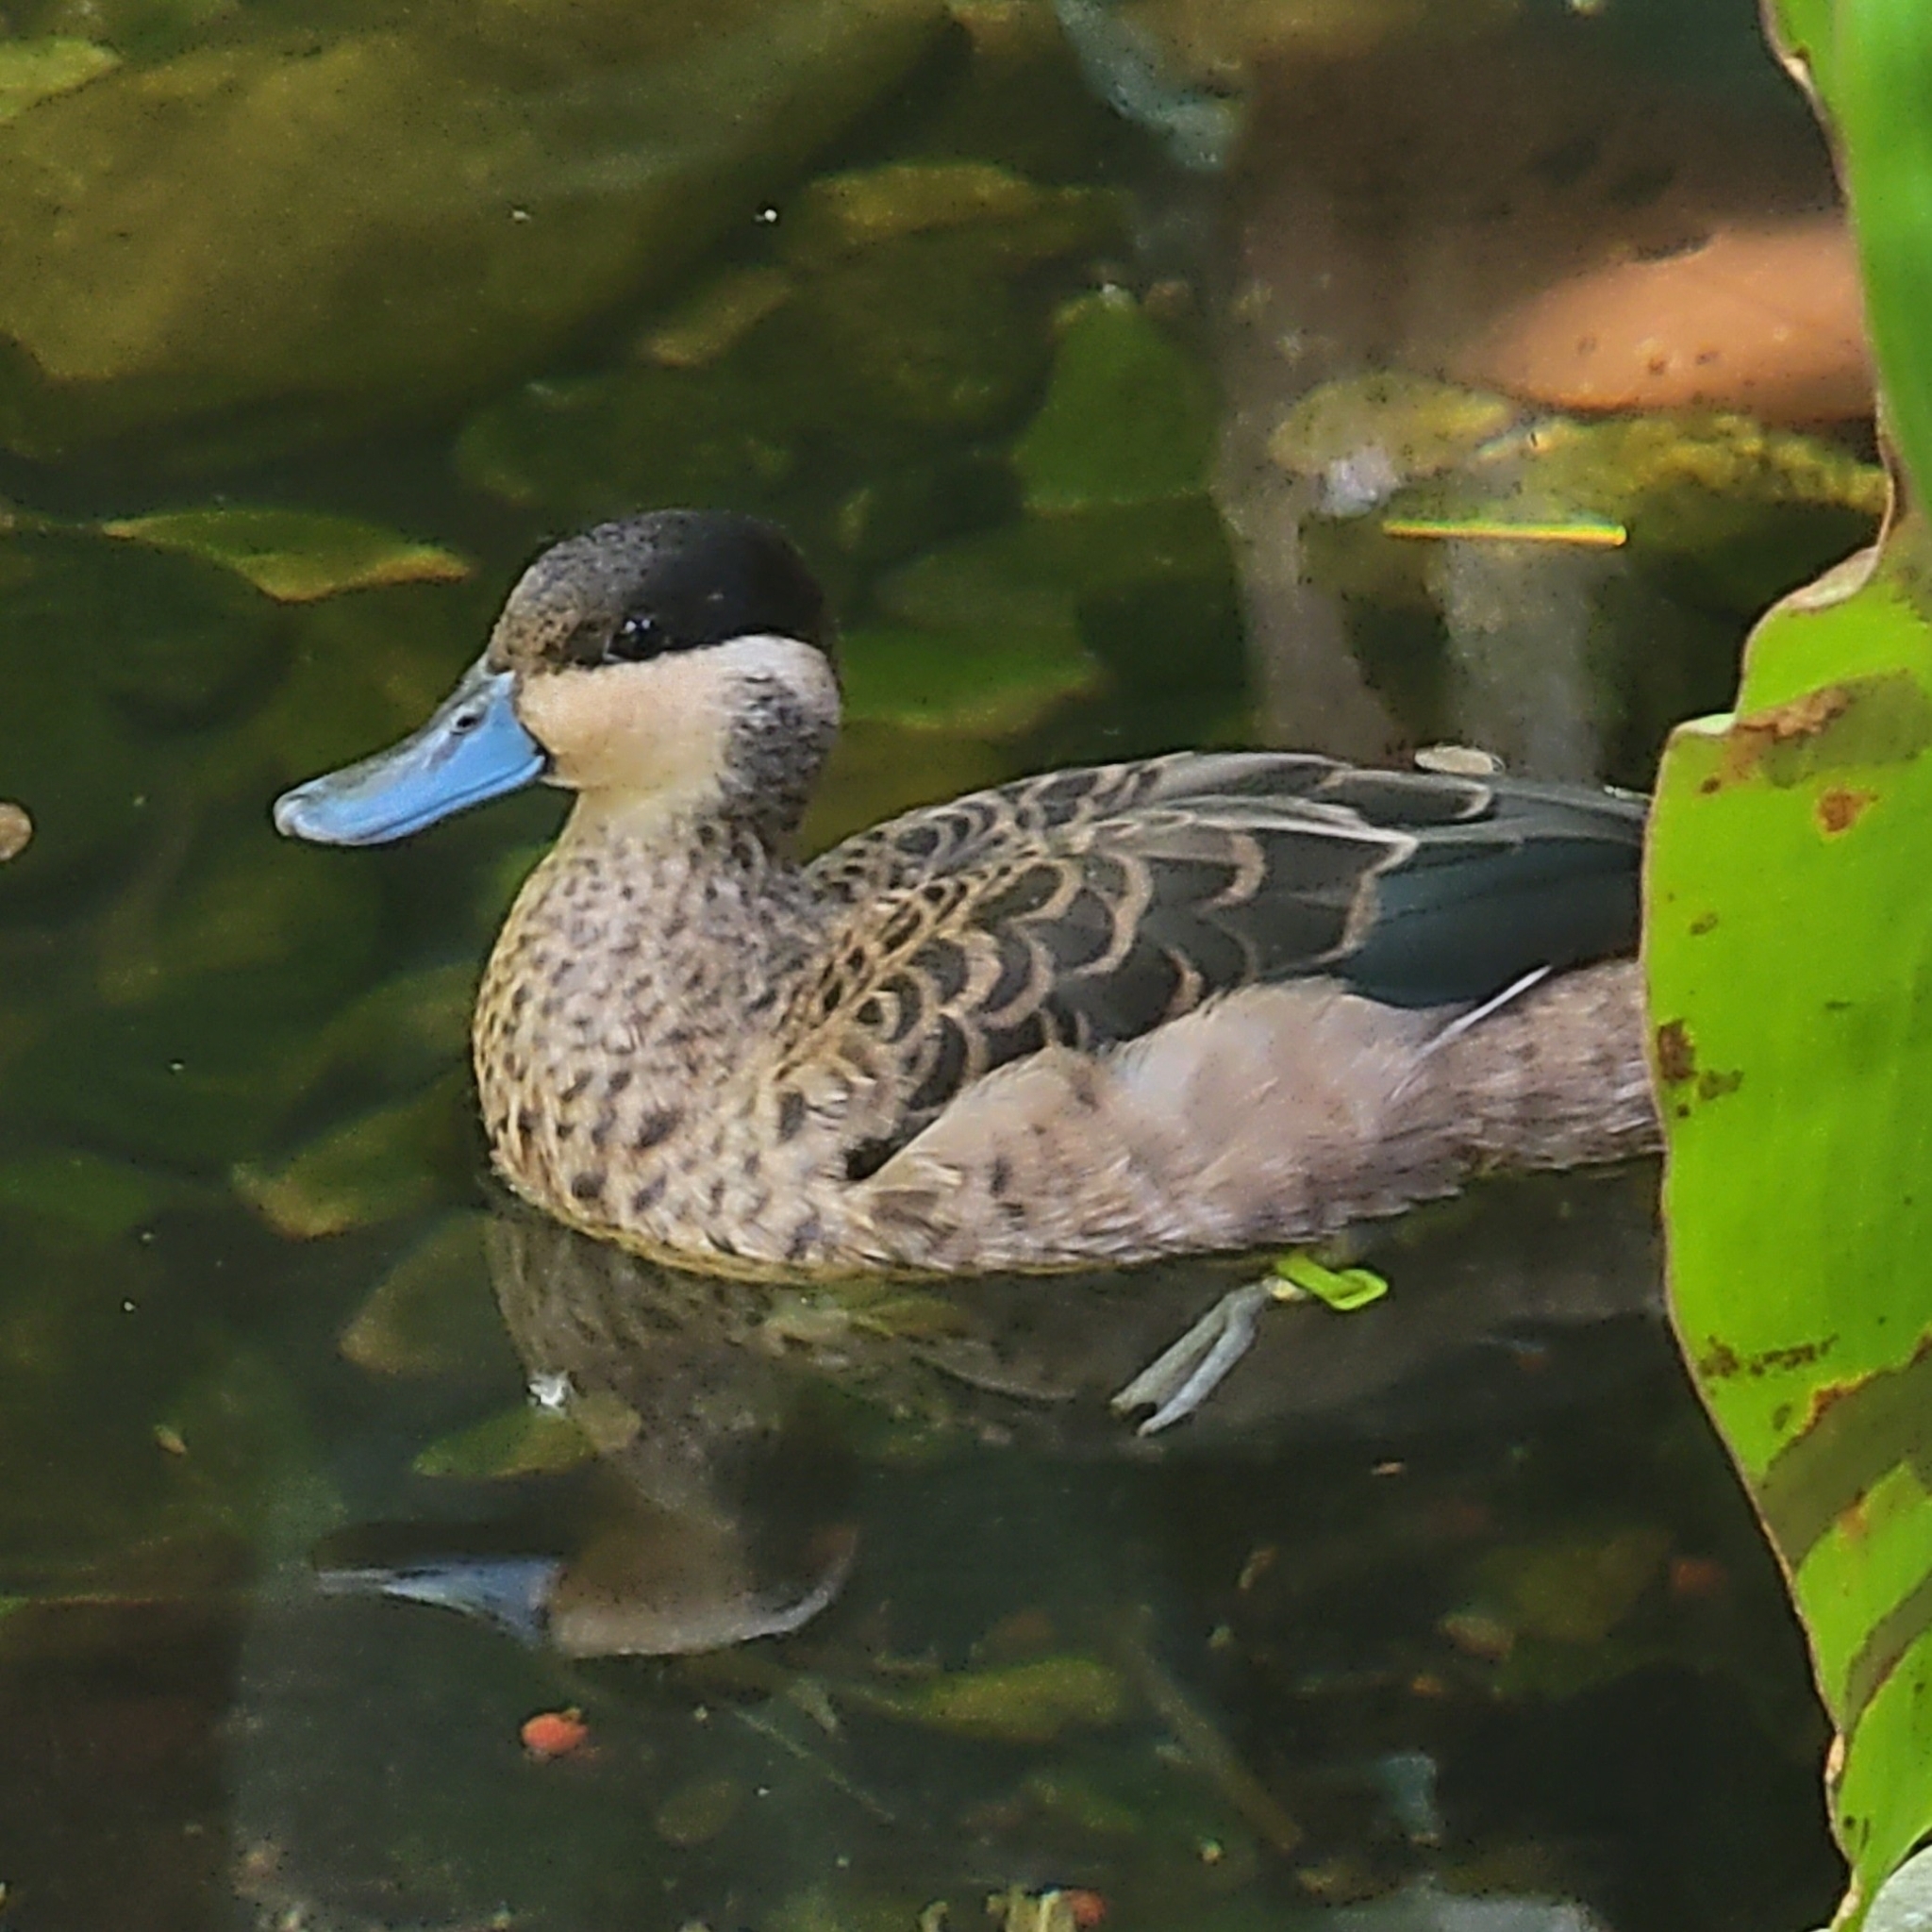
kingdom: Animalia
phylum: Chordata
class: Aves
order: Anseriformes
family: Anatidae
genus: Oxyura
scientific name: Oxyura jamaicensis
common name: Ruddy duck
